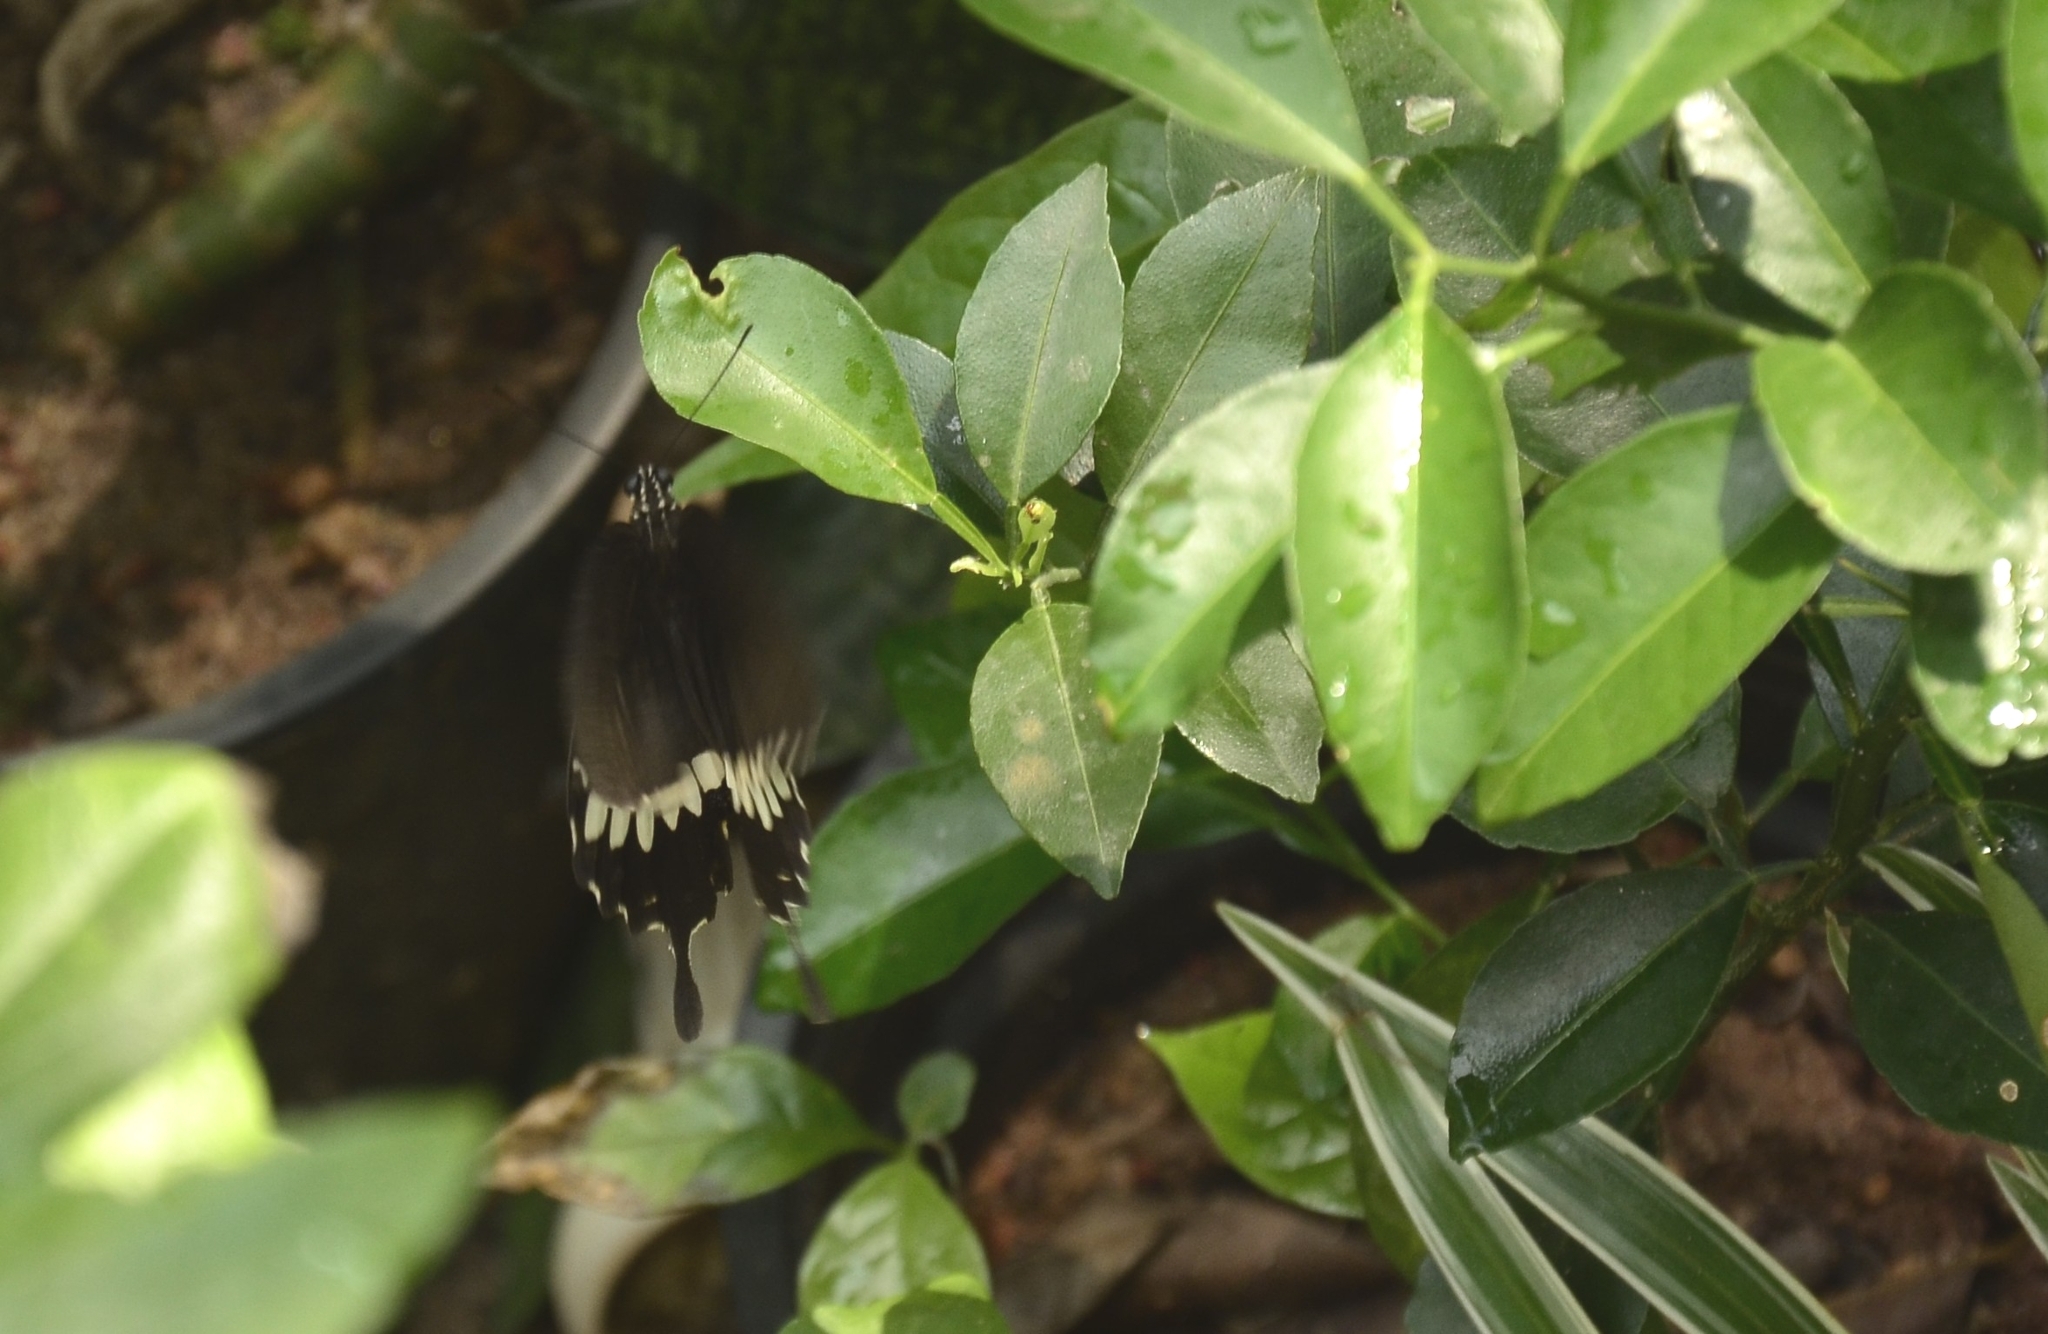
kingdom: Animalia
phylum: Arthropoda
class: Insecta
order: Lepidoptera
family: Papilionidae
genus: Papilio
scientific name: Papilio polytes
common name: Common mormon
